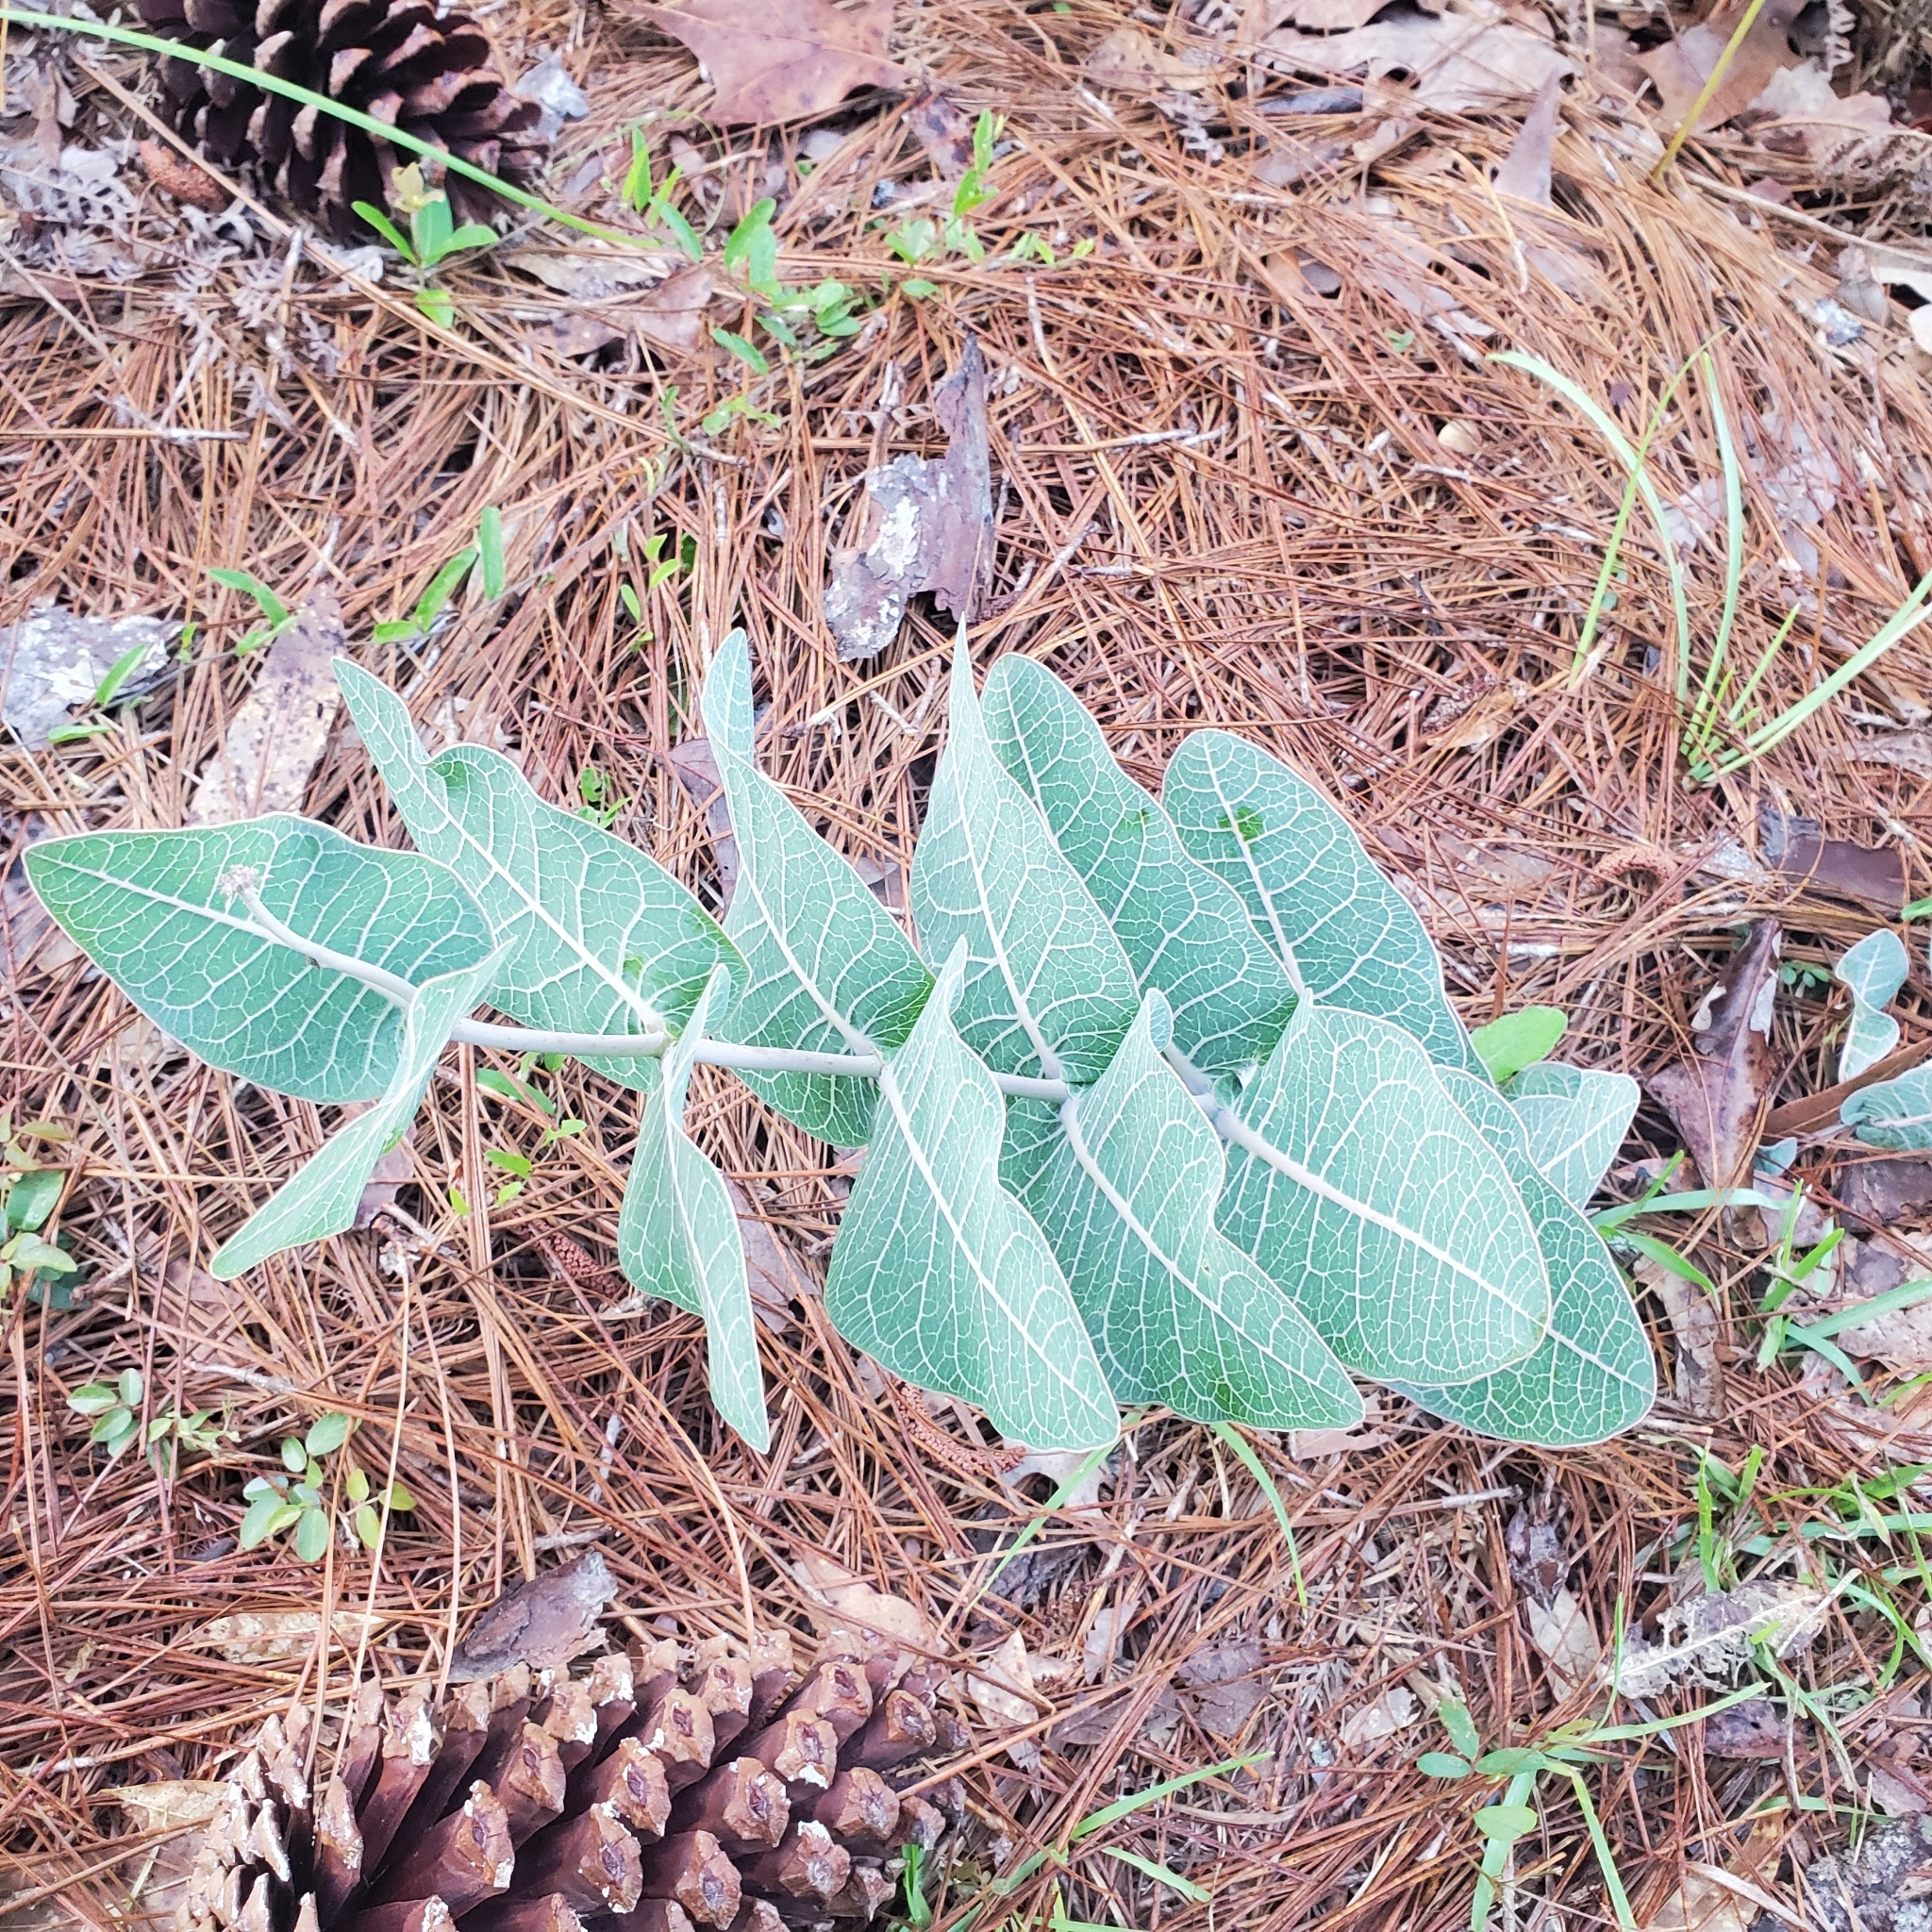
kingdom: Plantae
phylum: Tracheophyta
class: Magnoliopsida
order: Gentianales
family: Apocynaceae
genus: Asclepias
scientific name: Asclepias humistrata
